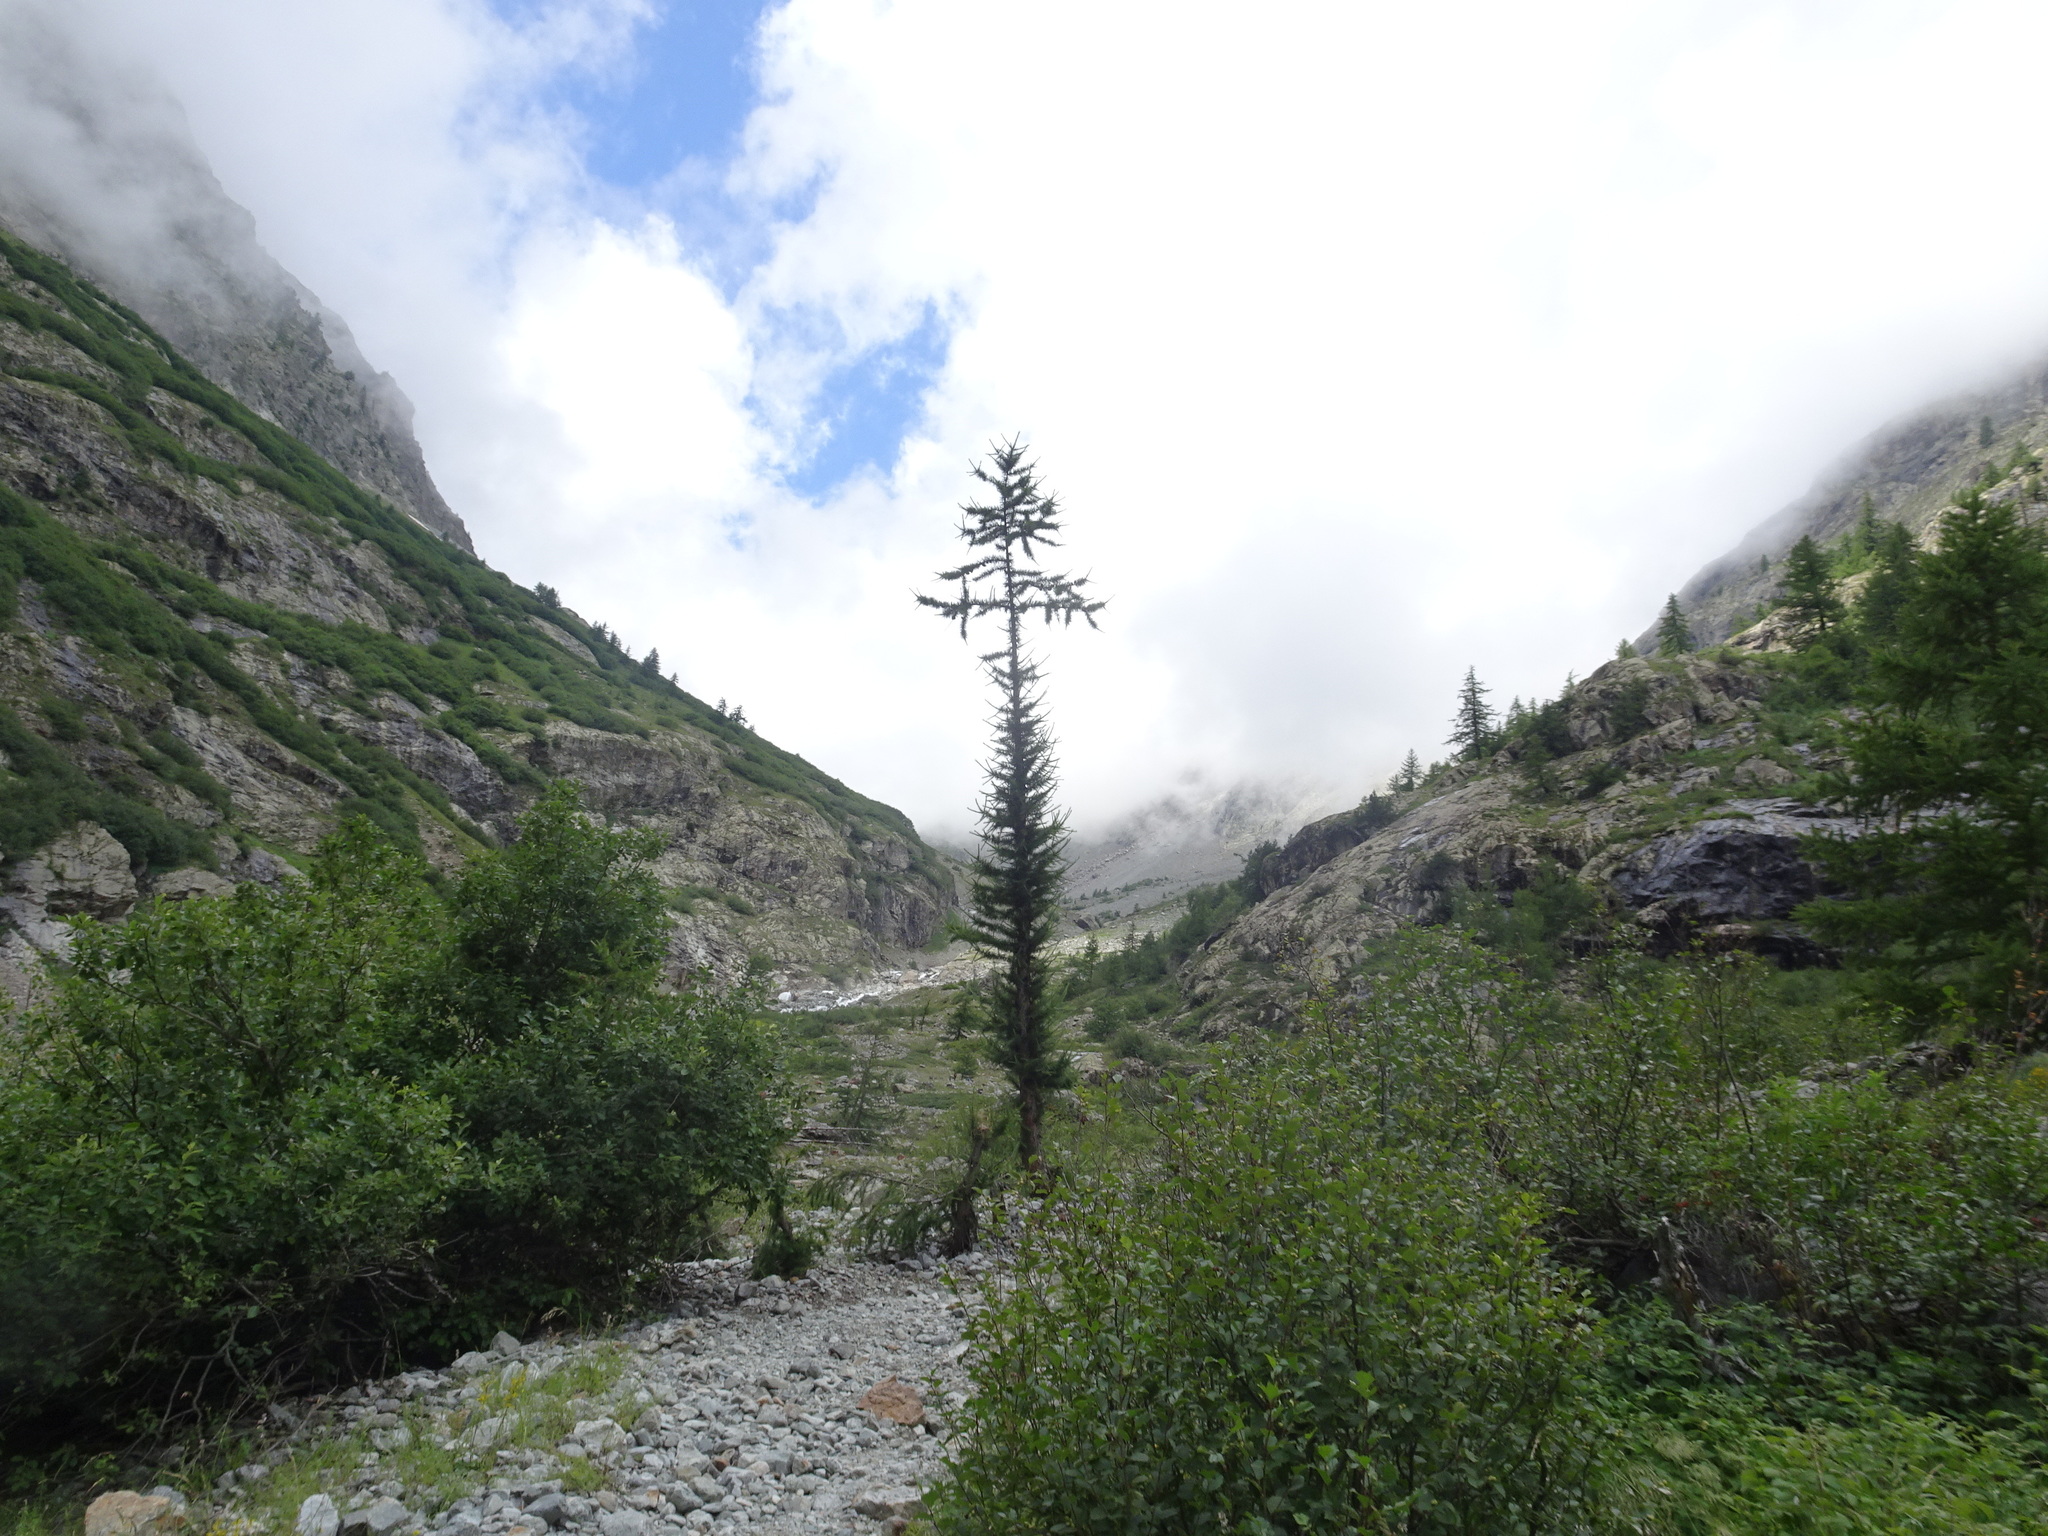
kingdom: Plantae
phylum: Tracheophyta
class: Pinopsida
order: Pinales
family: Pinaceae
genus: Larix
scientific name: Larix decidua
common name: European larch
